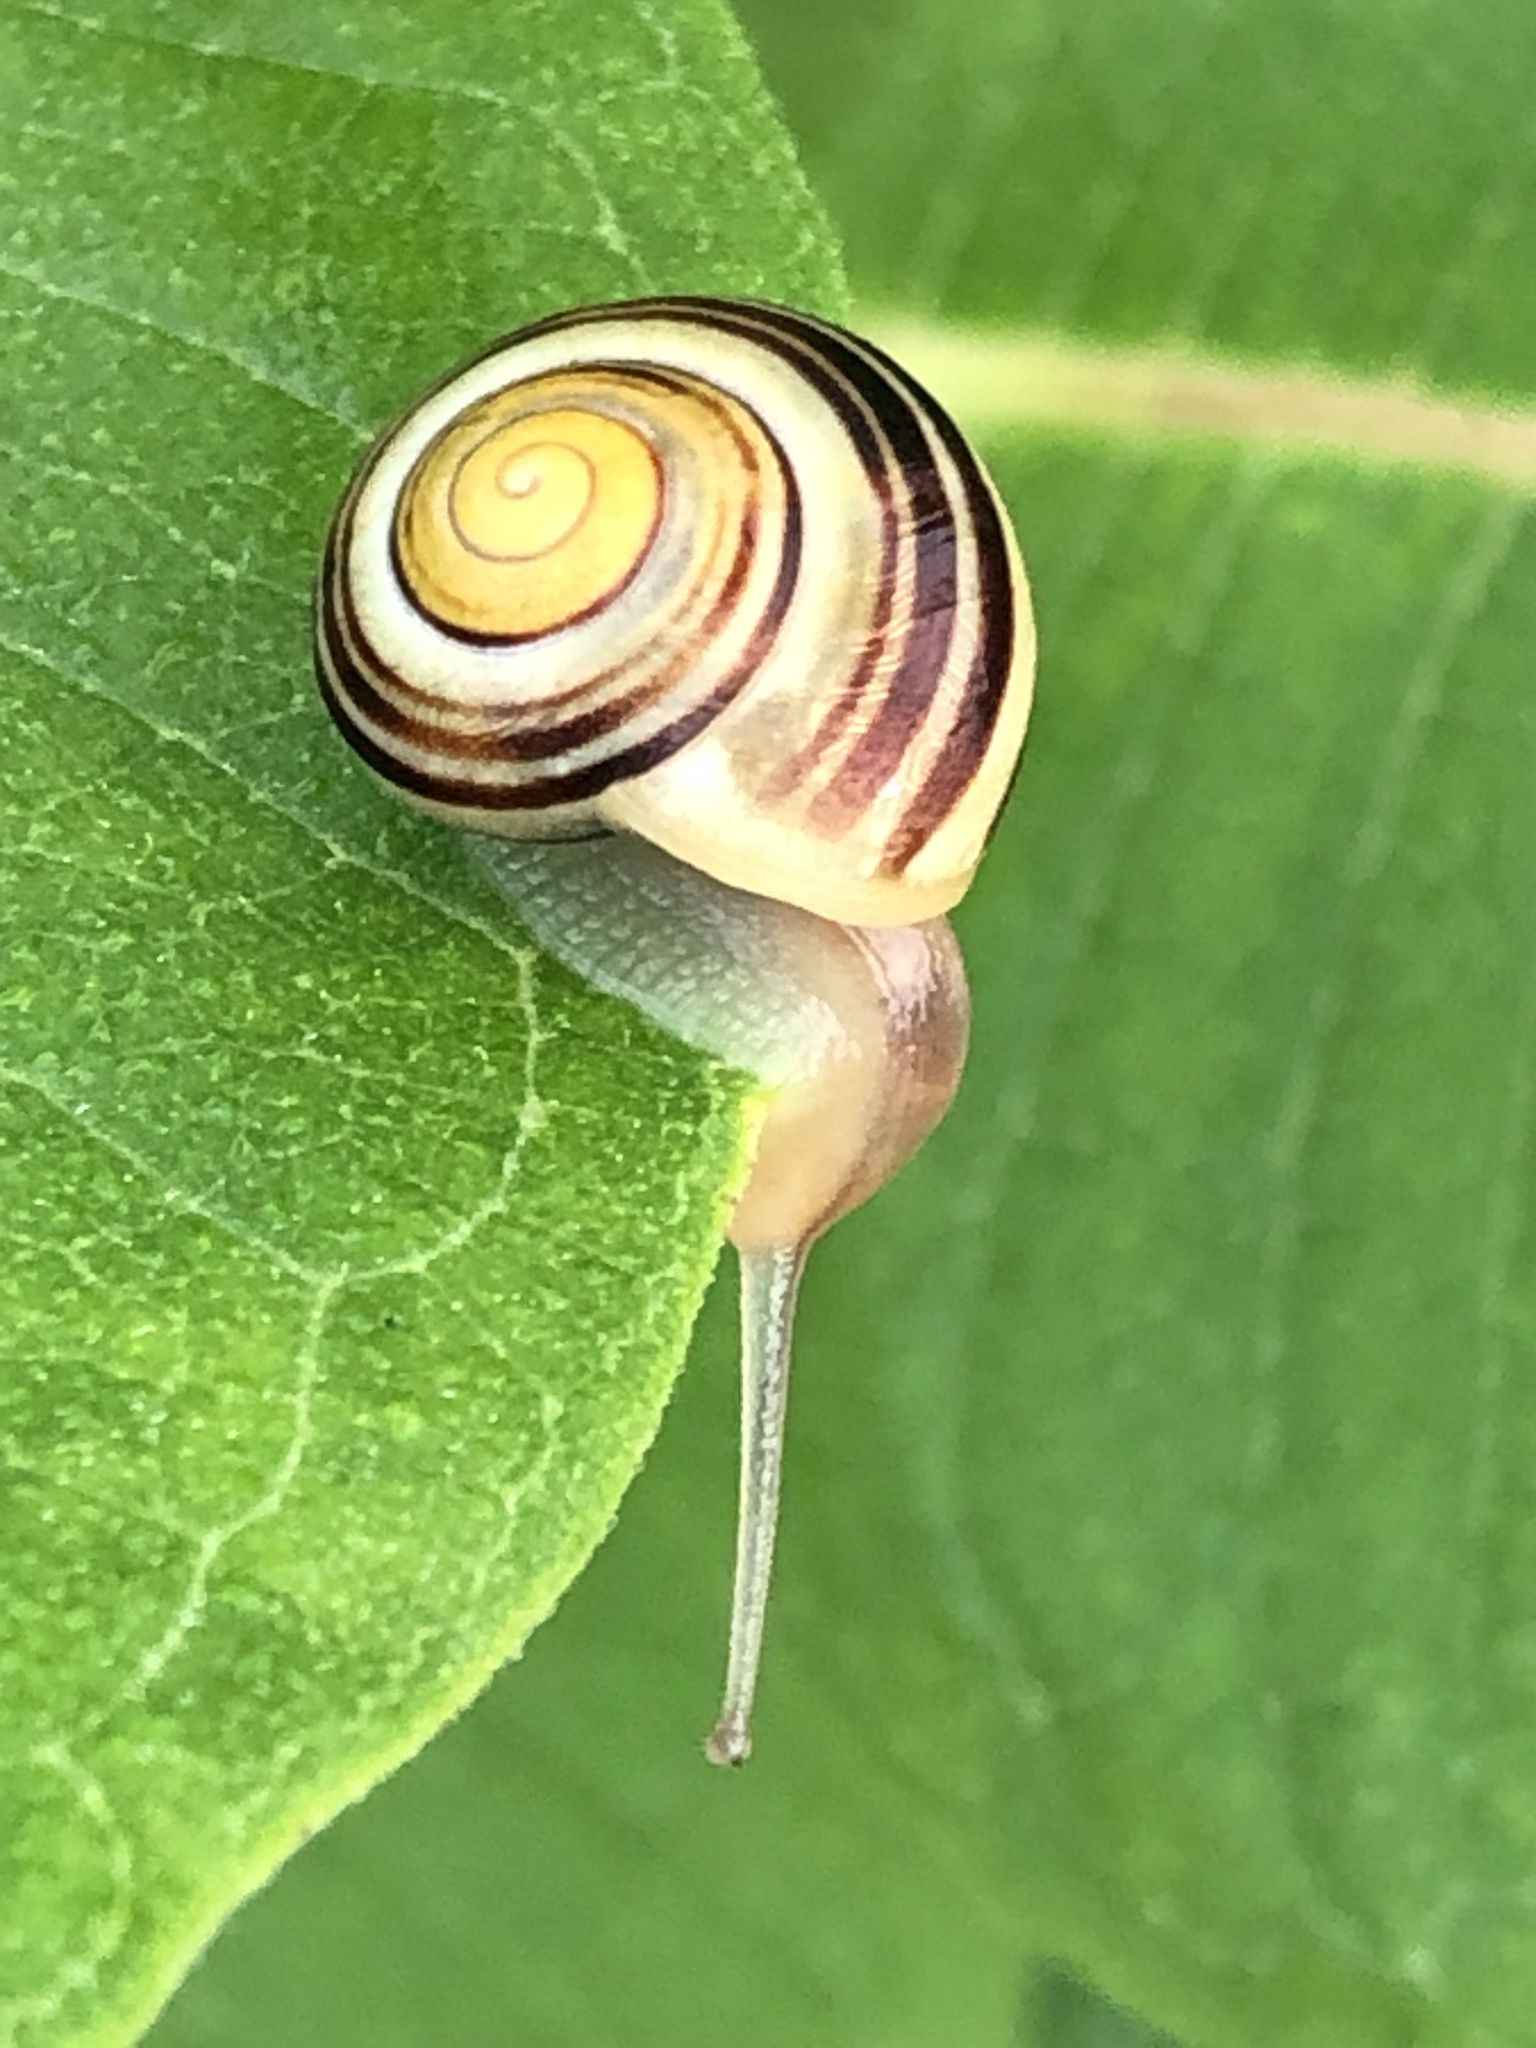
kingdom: Animalia
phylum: Mollusca
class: Gastropoda
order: Stylommatophora
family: Helicidae
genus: Cepaea
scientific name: Cepaea
